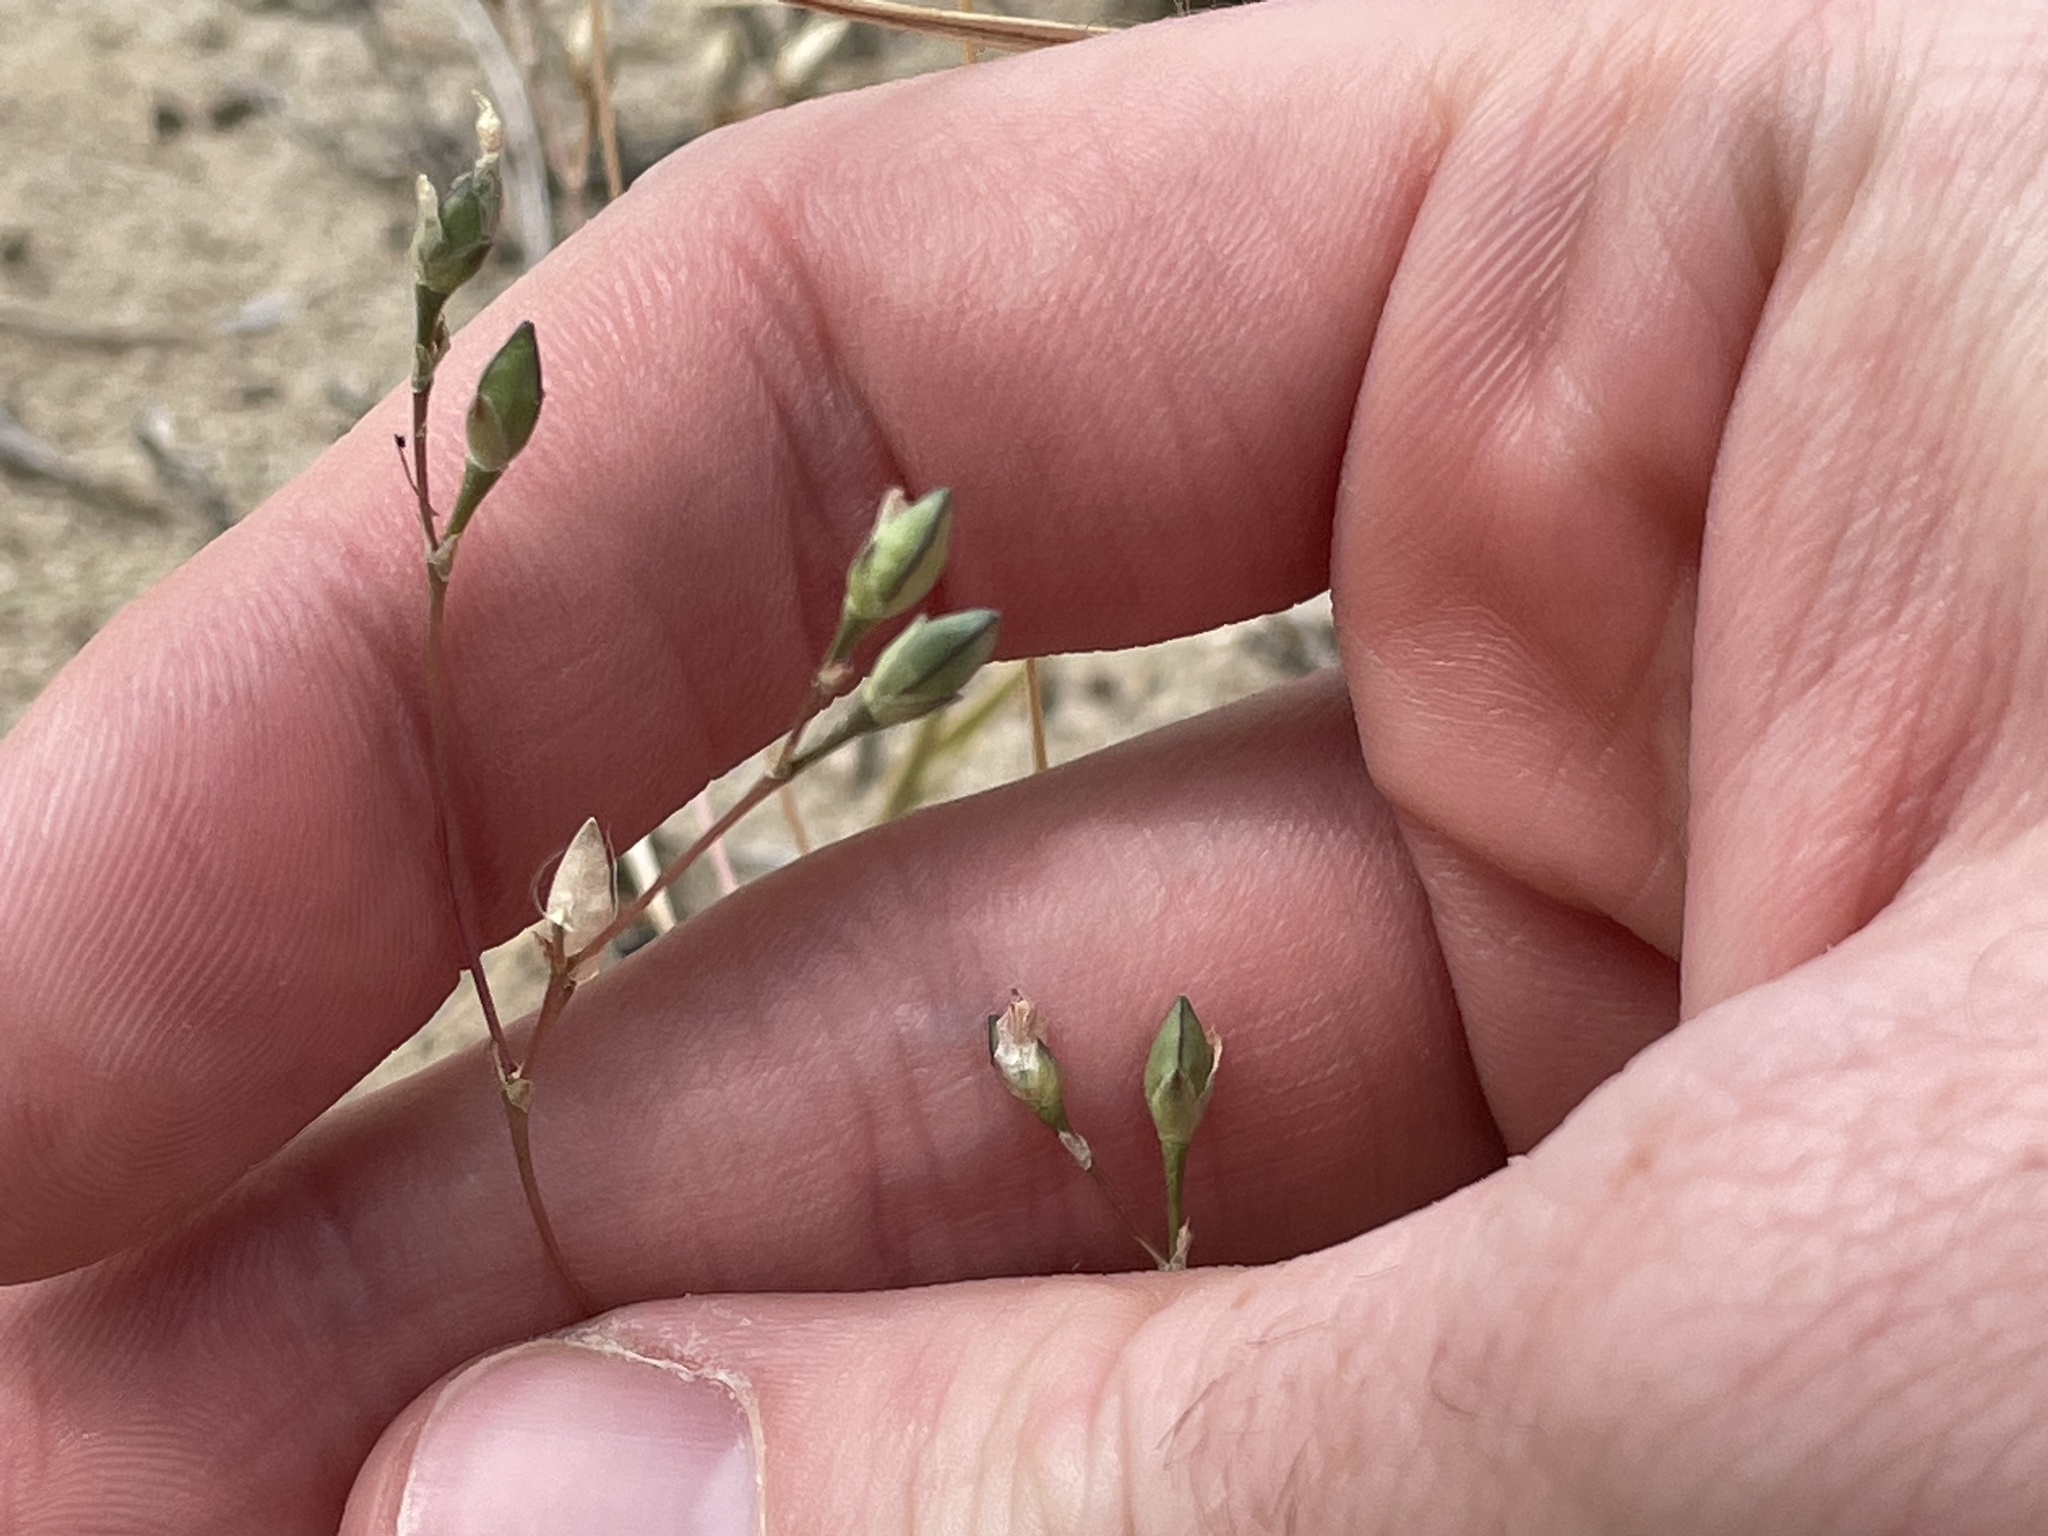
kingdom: Plantae
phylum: Tracheophyta
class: Magnoliopsida
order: Caryophyllales
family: Montiaceae
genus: Phemeranthus
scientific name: Phemeranthus confertiflorus
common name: New mexico fameflower
